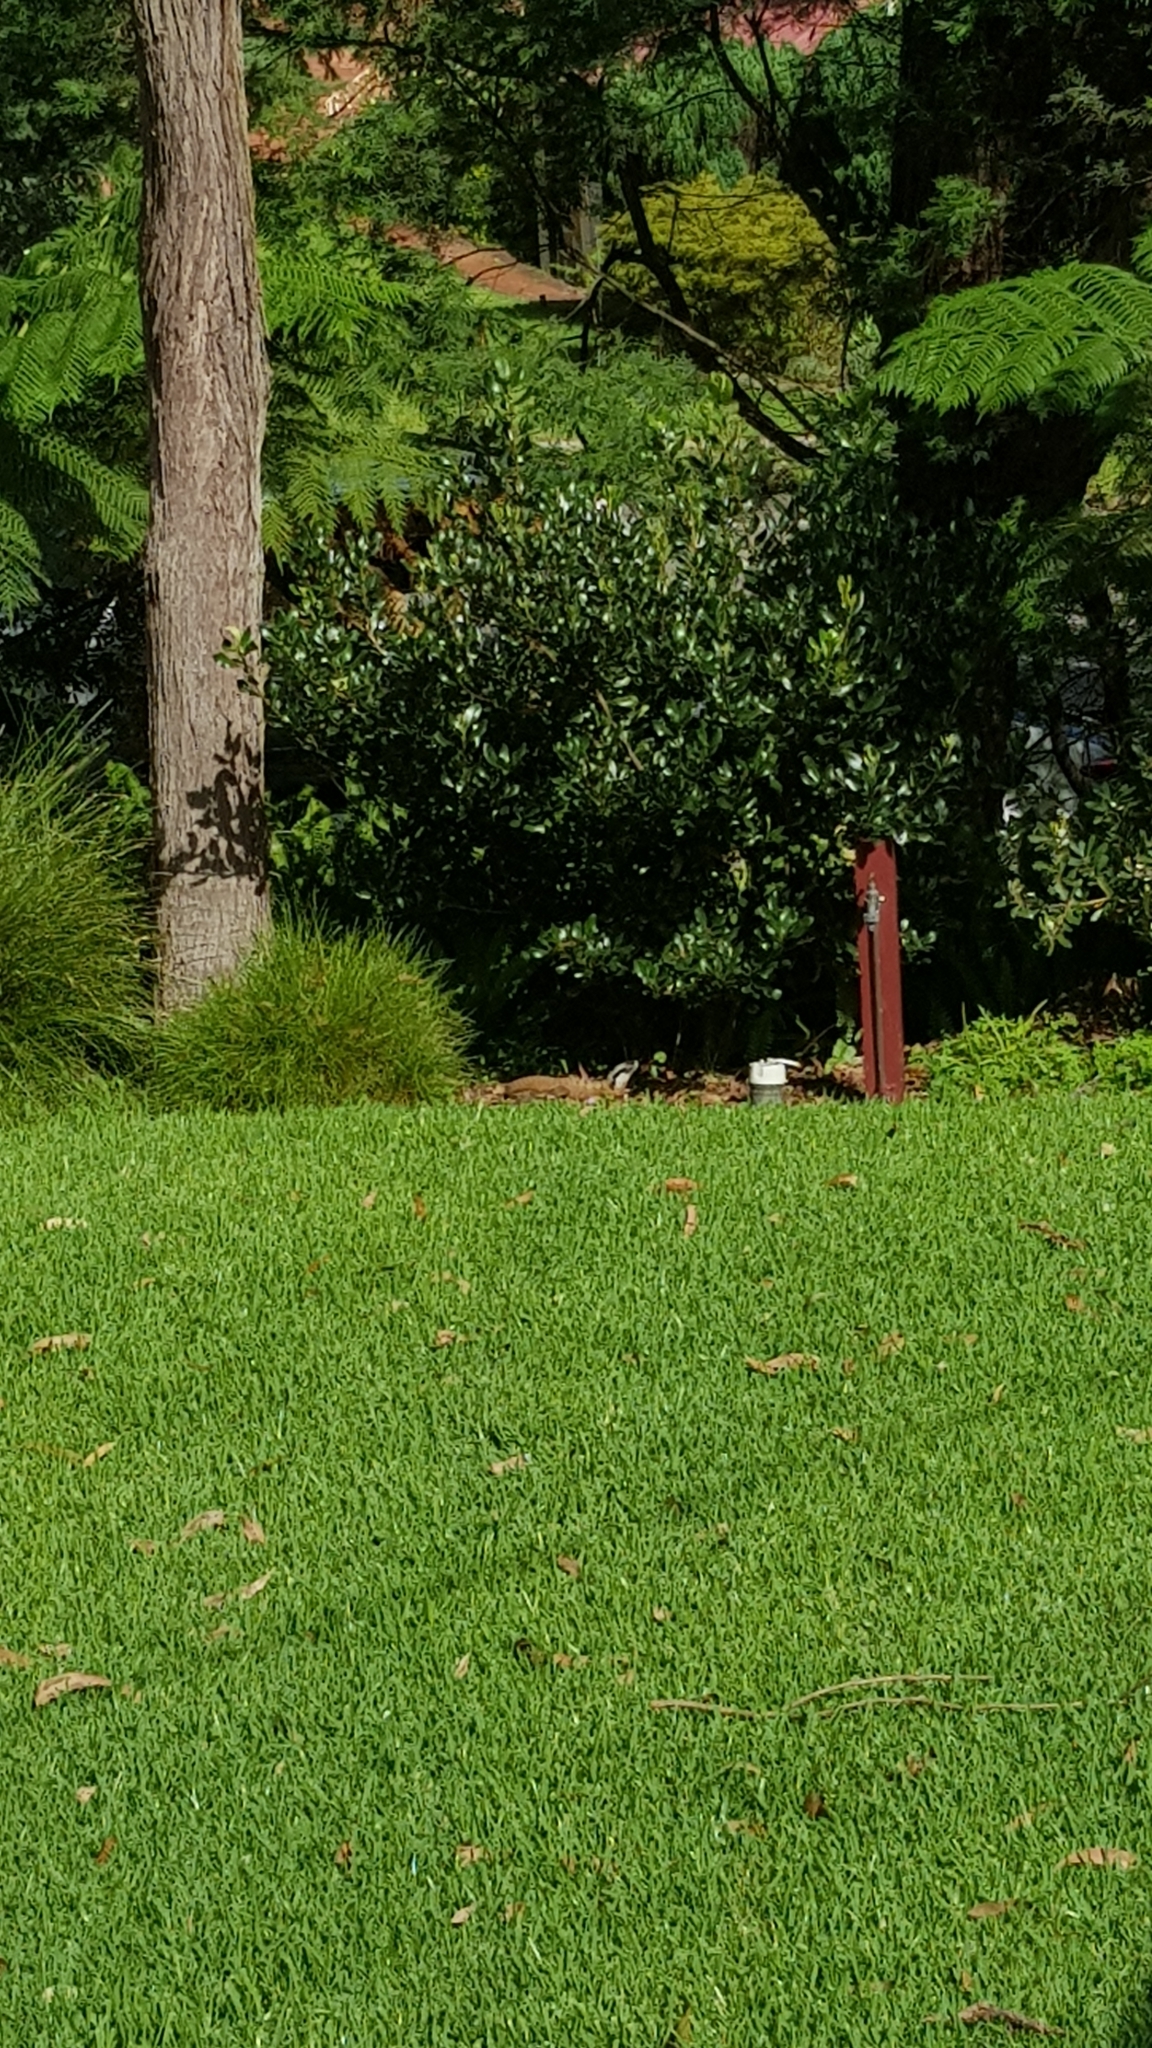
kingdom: Animalia
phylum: Chordata
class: Squamata
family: Agamidae
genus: Intellagama
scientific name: Intellagama lesueurii
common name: Eastern water dragon
